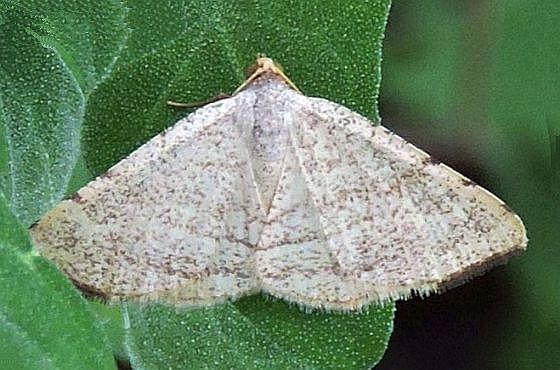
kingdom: Animalia
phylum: Arthropoda
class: Insecta
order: Lepidoptera
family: Geometridae
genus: Macaria
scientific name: Macaria octolineata
